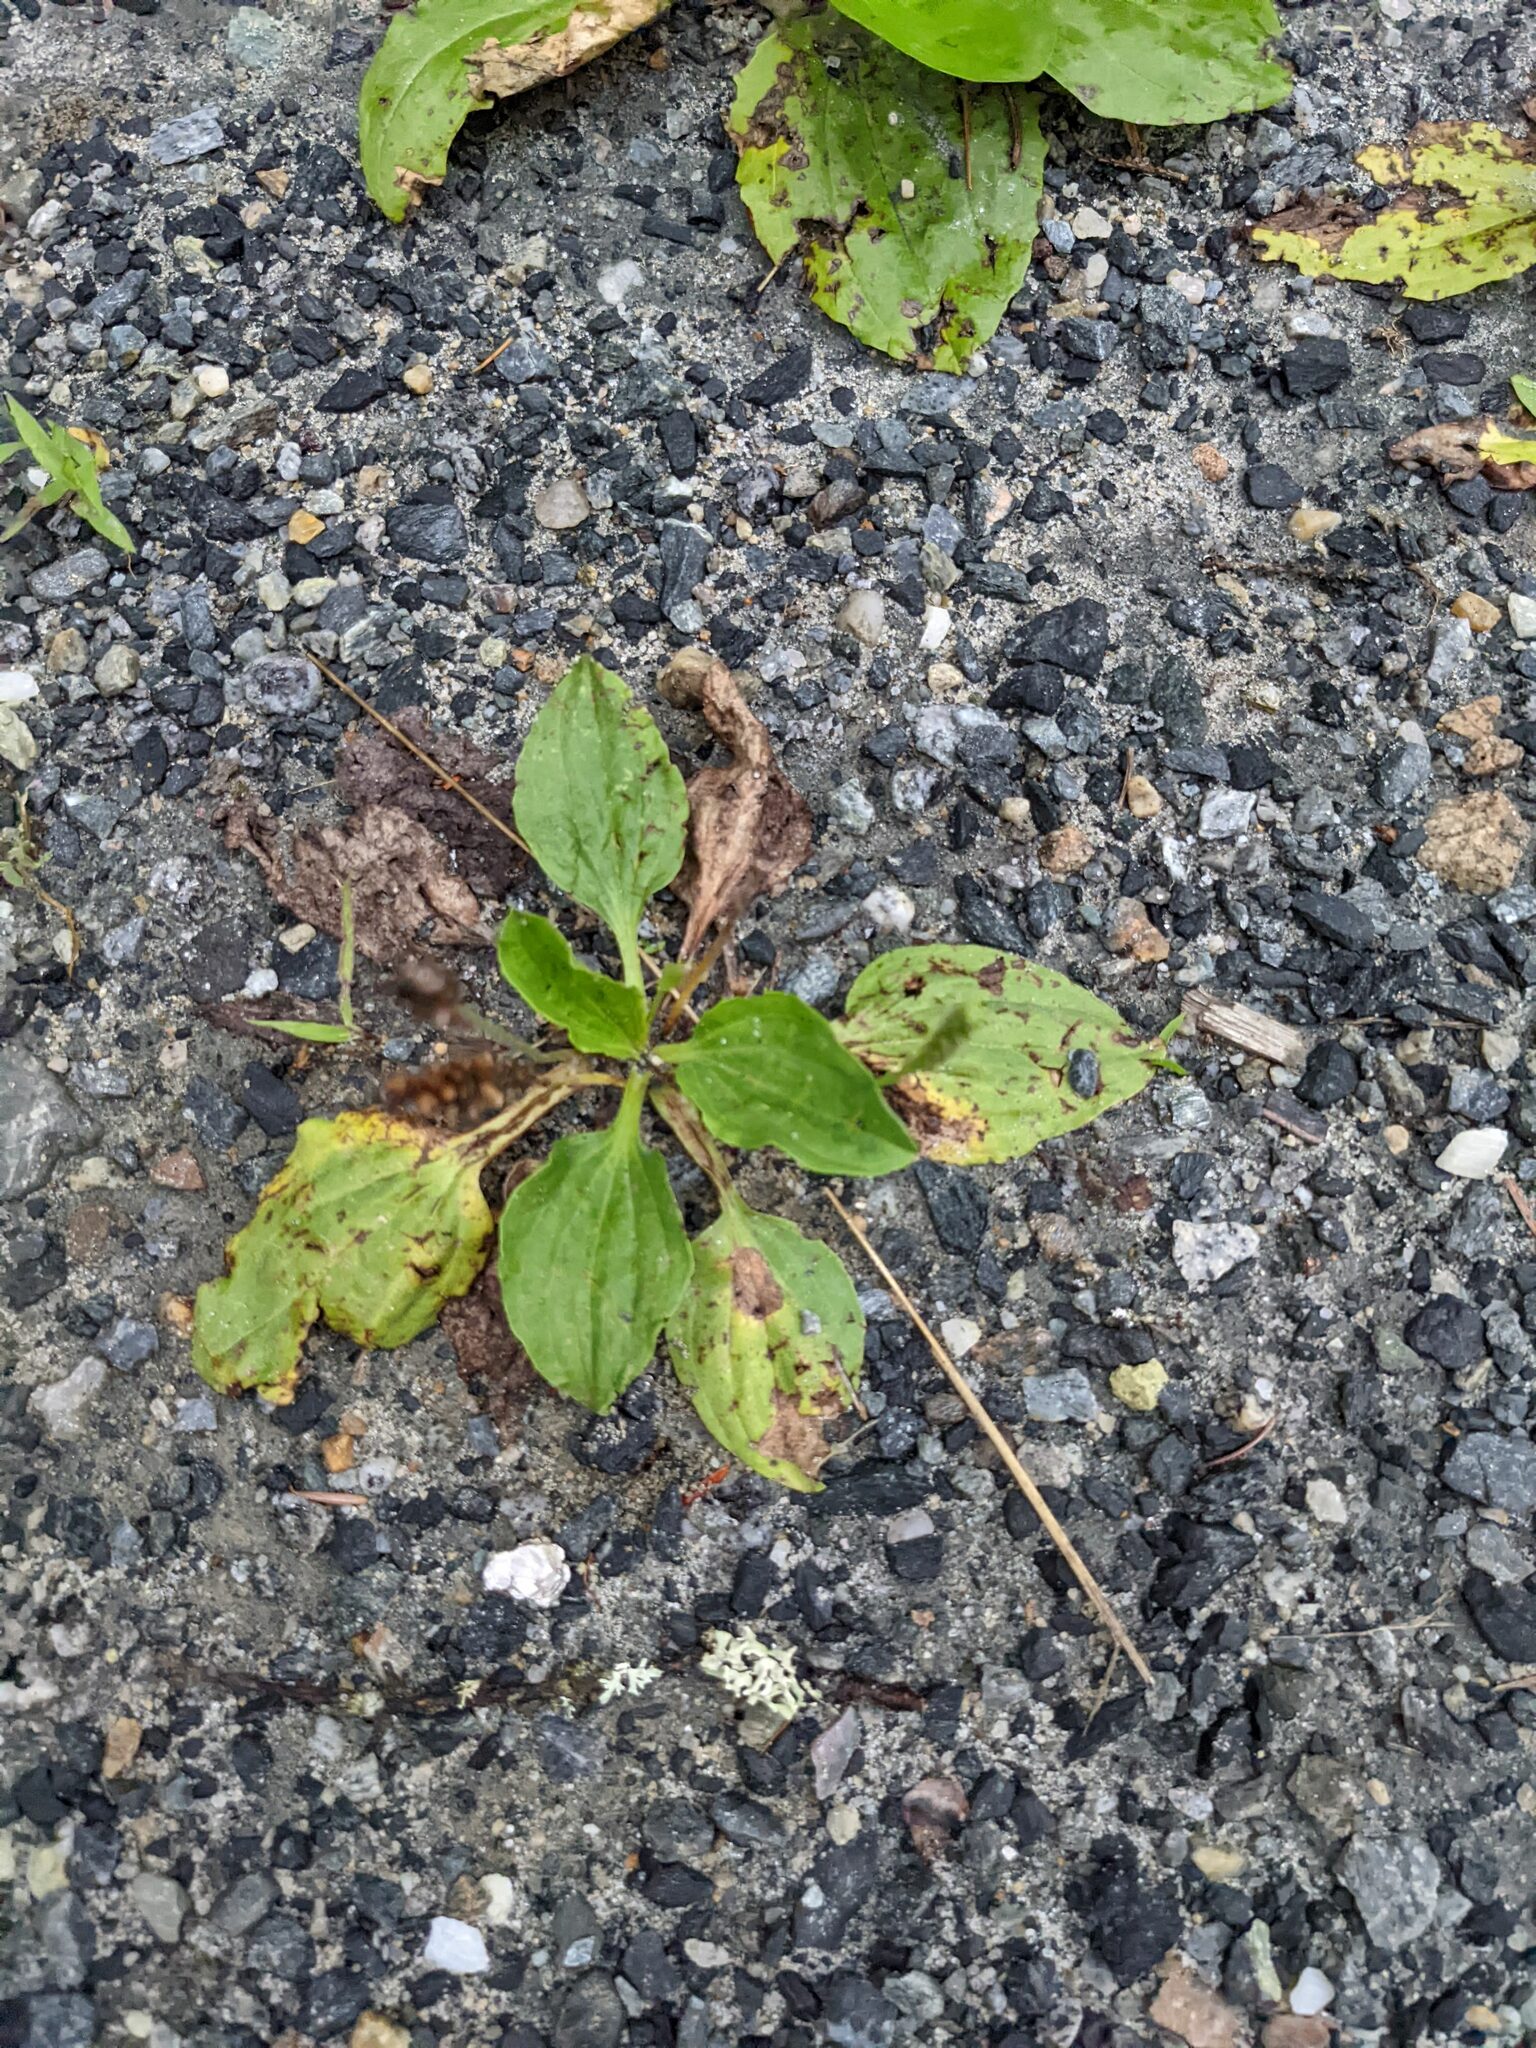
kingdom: Plantae
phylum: Tracheophyta
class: Magnoliopsida
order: Lamiales
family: Plantaginaceae
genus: Plantago
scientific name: Plantago major
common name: Common plantain
